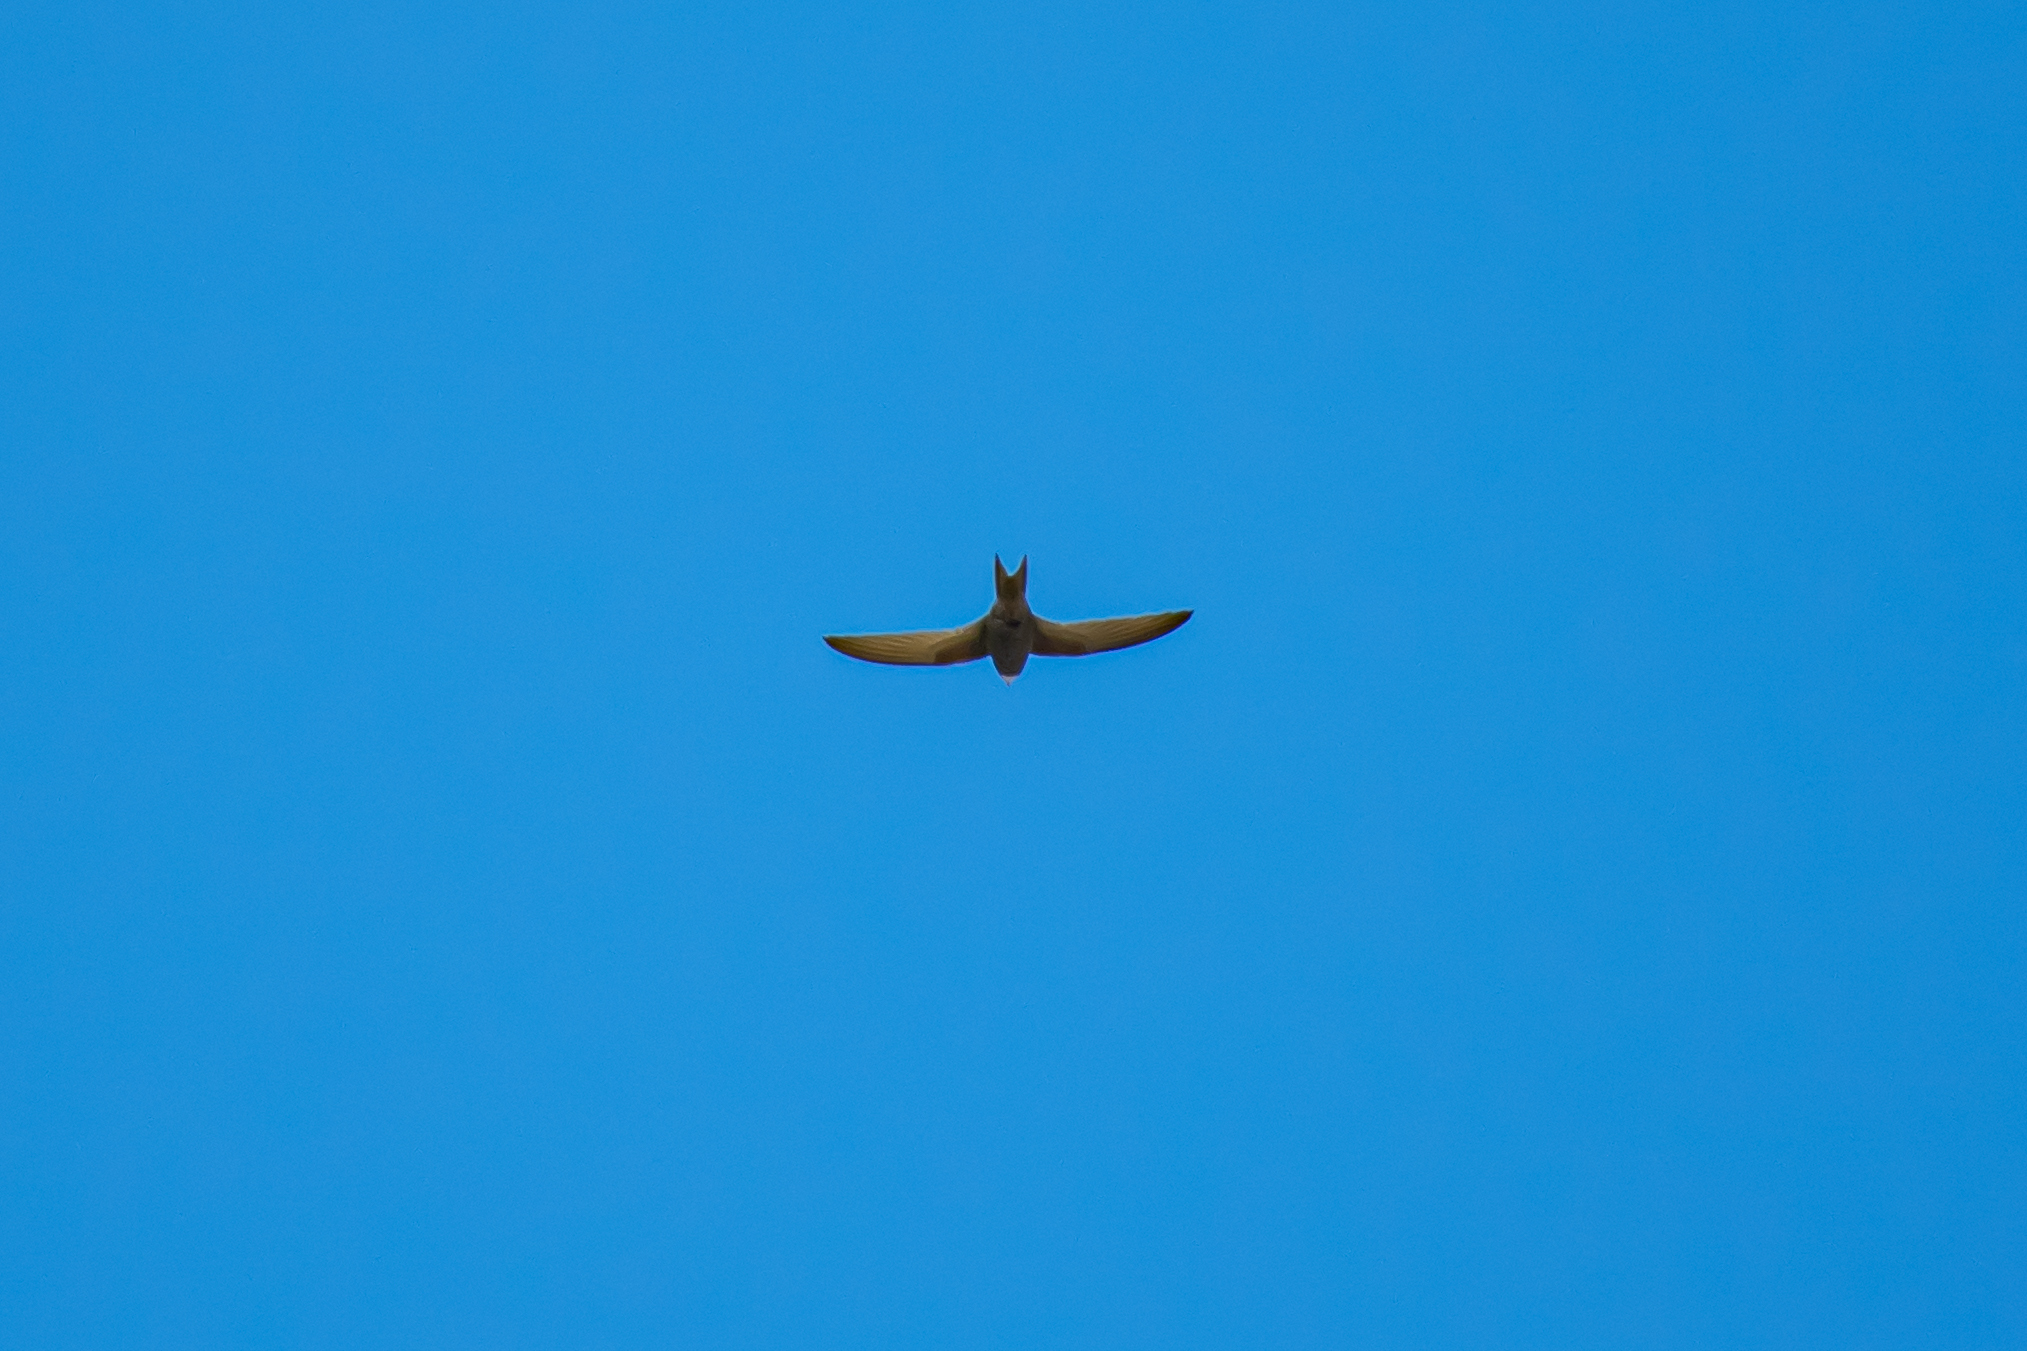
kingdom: Animalia
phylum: Chordata
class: Aves
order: Apodiformes
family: Apodidae
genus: Apus
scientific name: Apus apus
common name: Common swift
